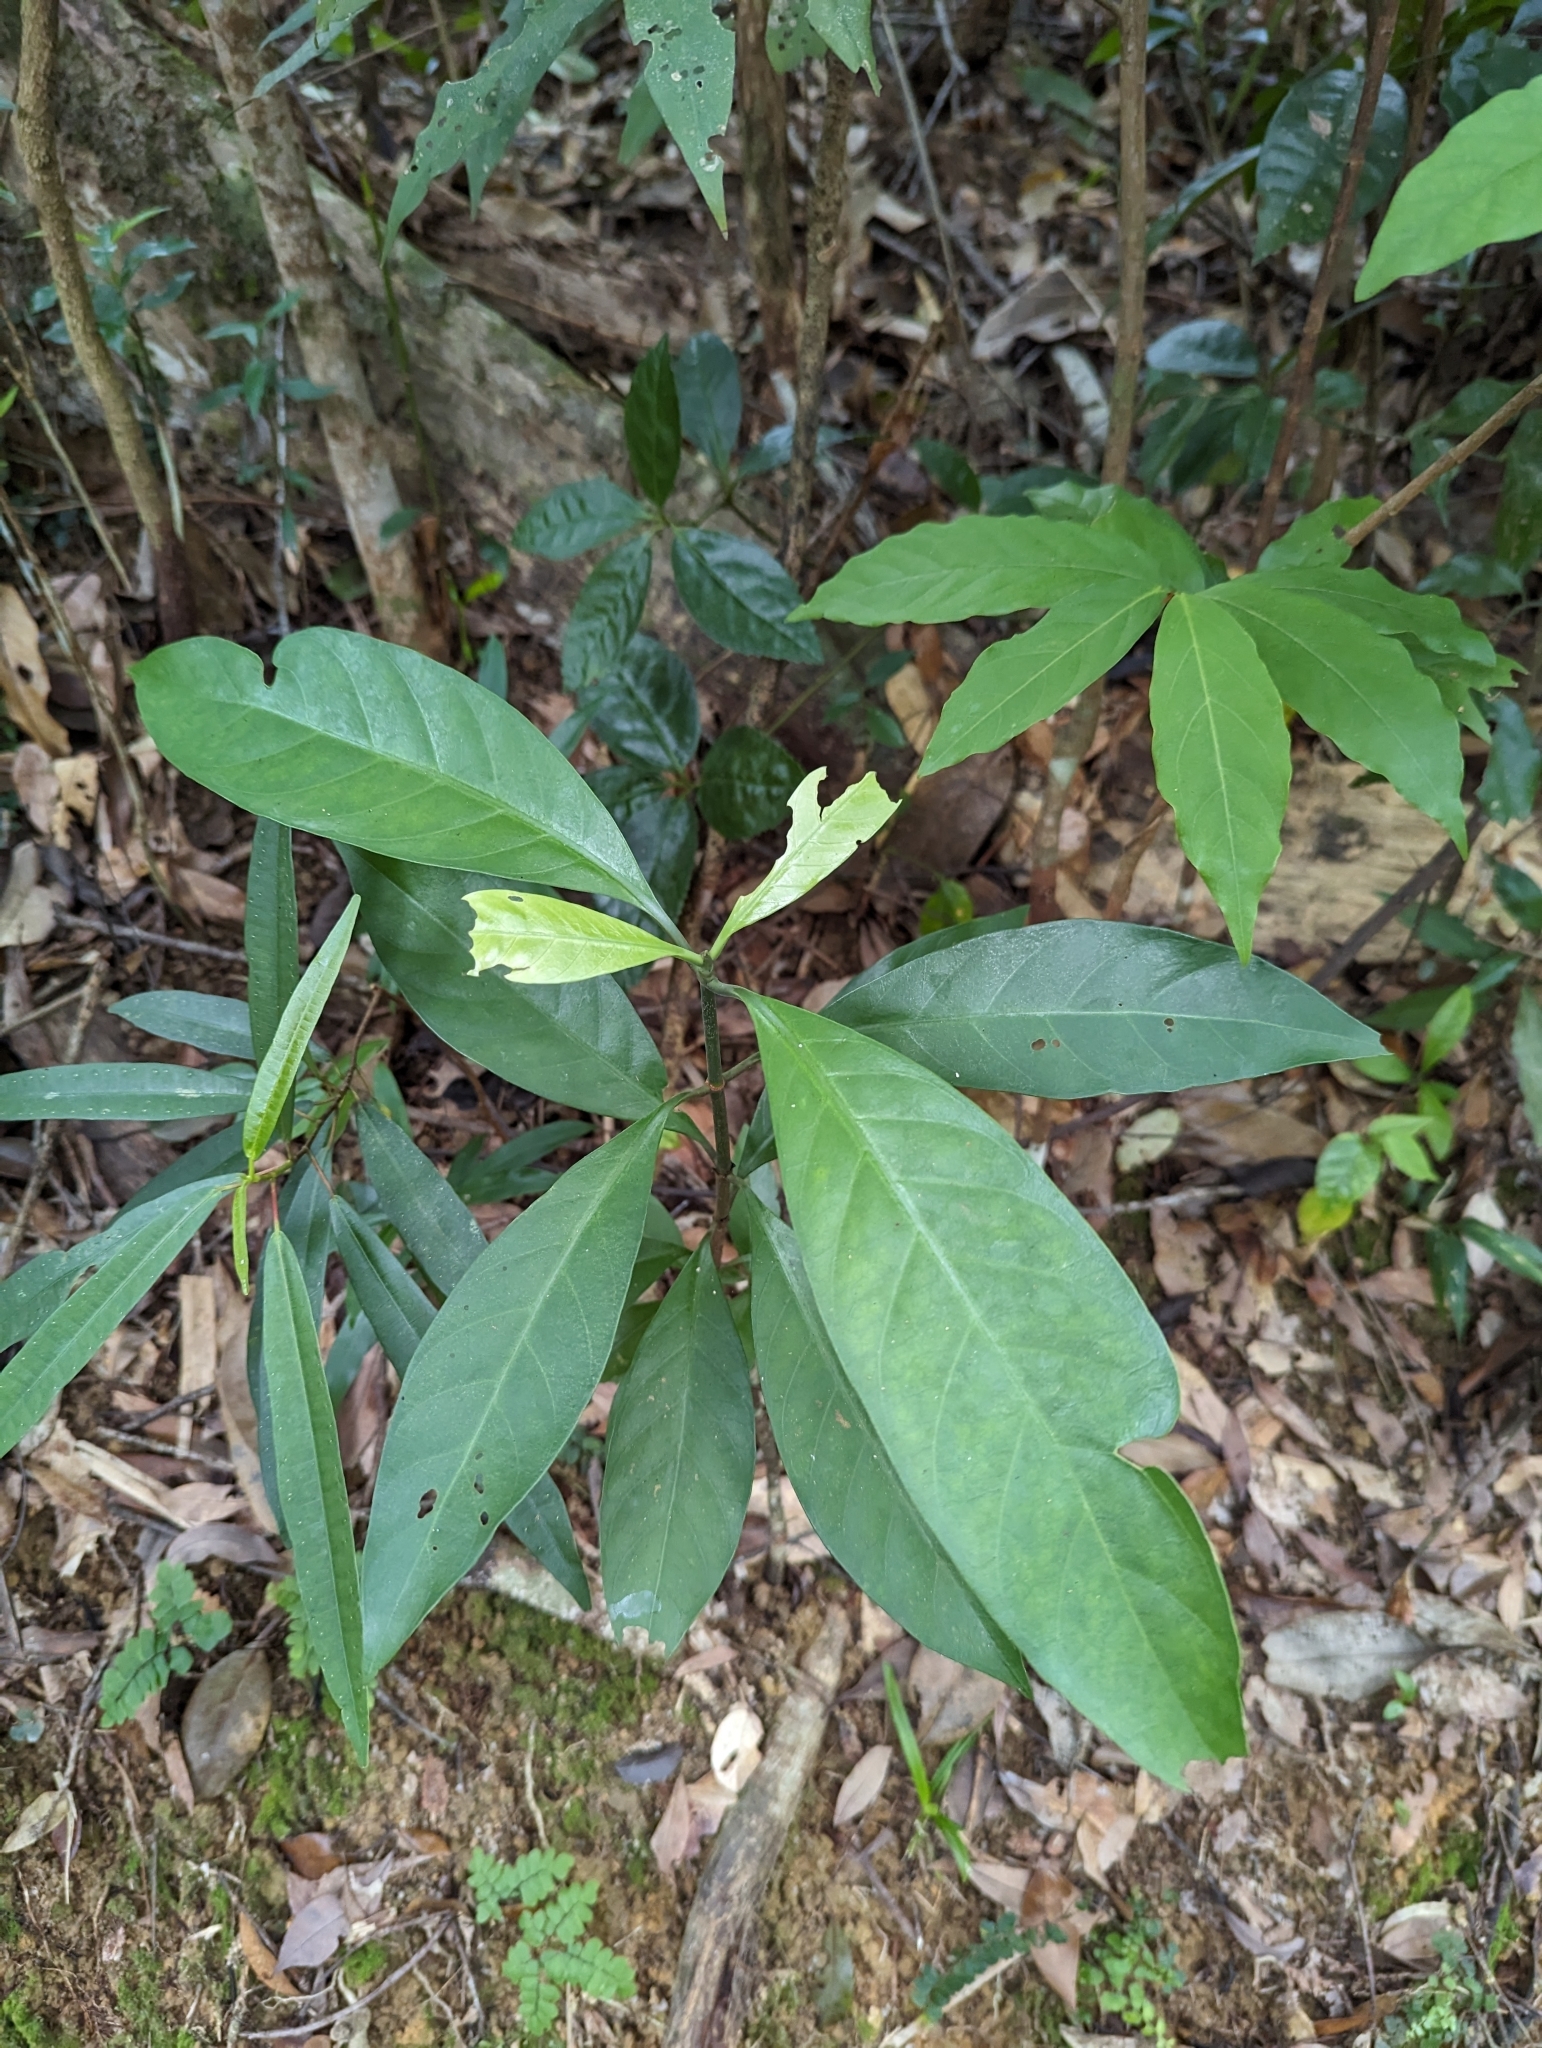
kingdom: Plantae
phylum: Tracheophyta
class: Magnoliopsida
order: Gentianales
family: Rubiaceae
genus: Psychotria
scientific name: Psychotria asiatica
